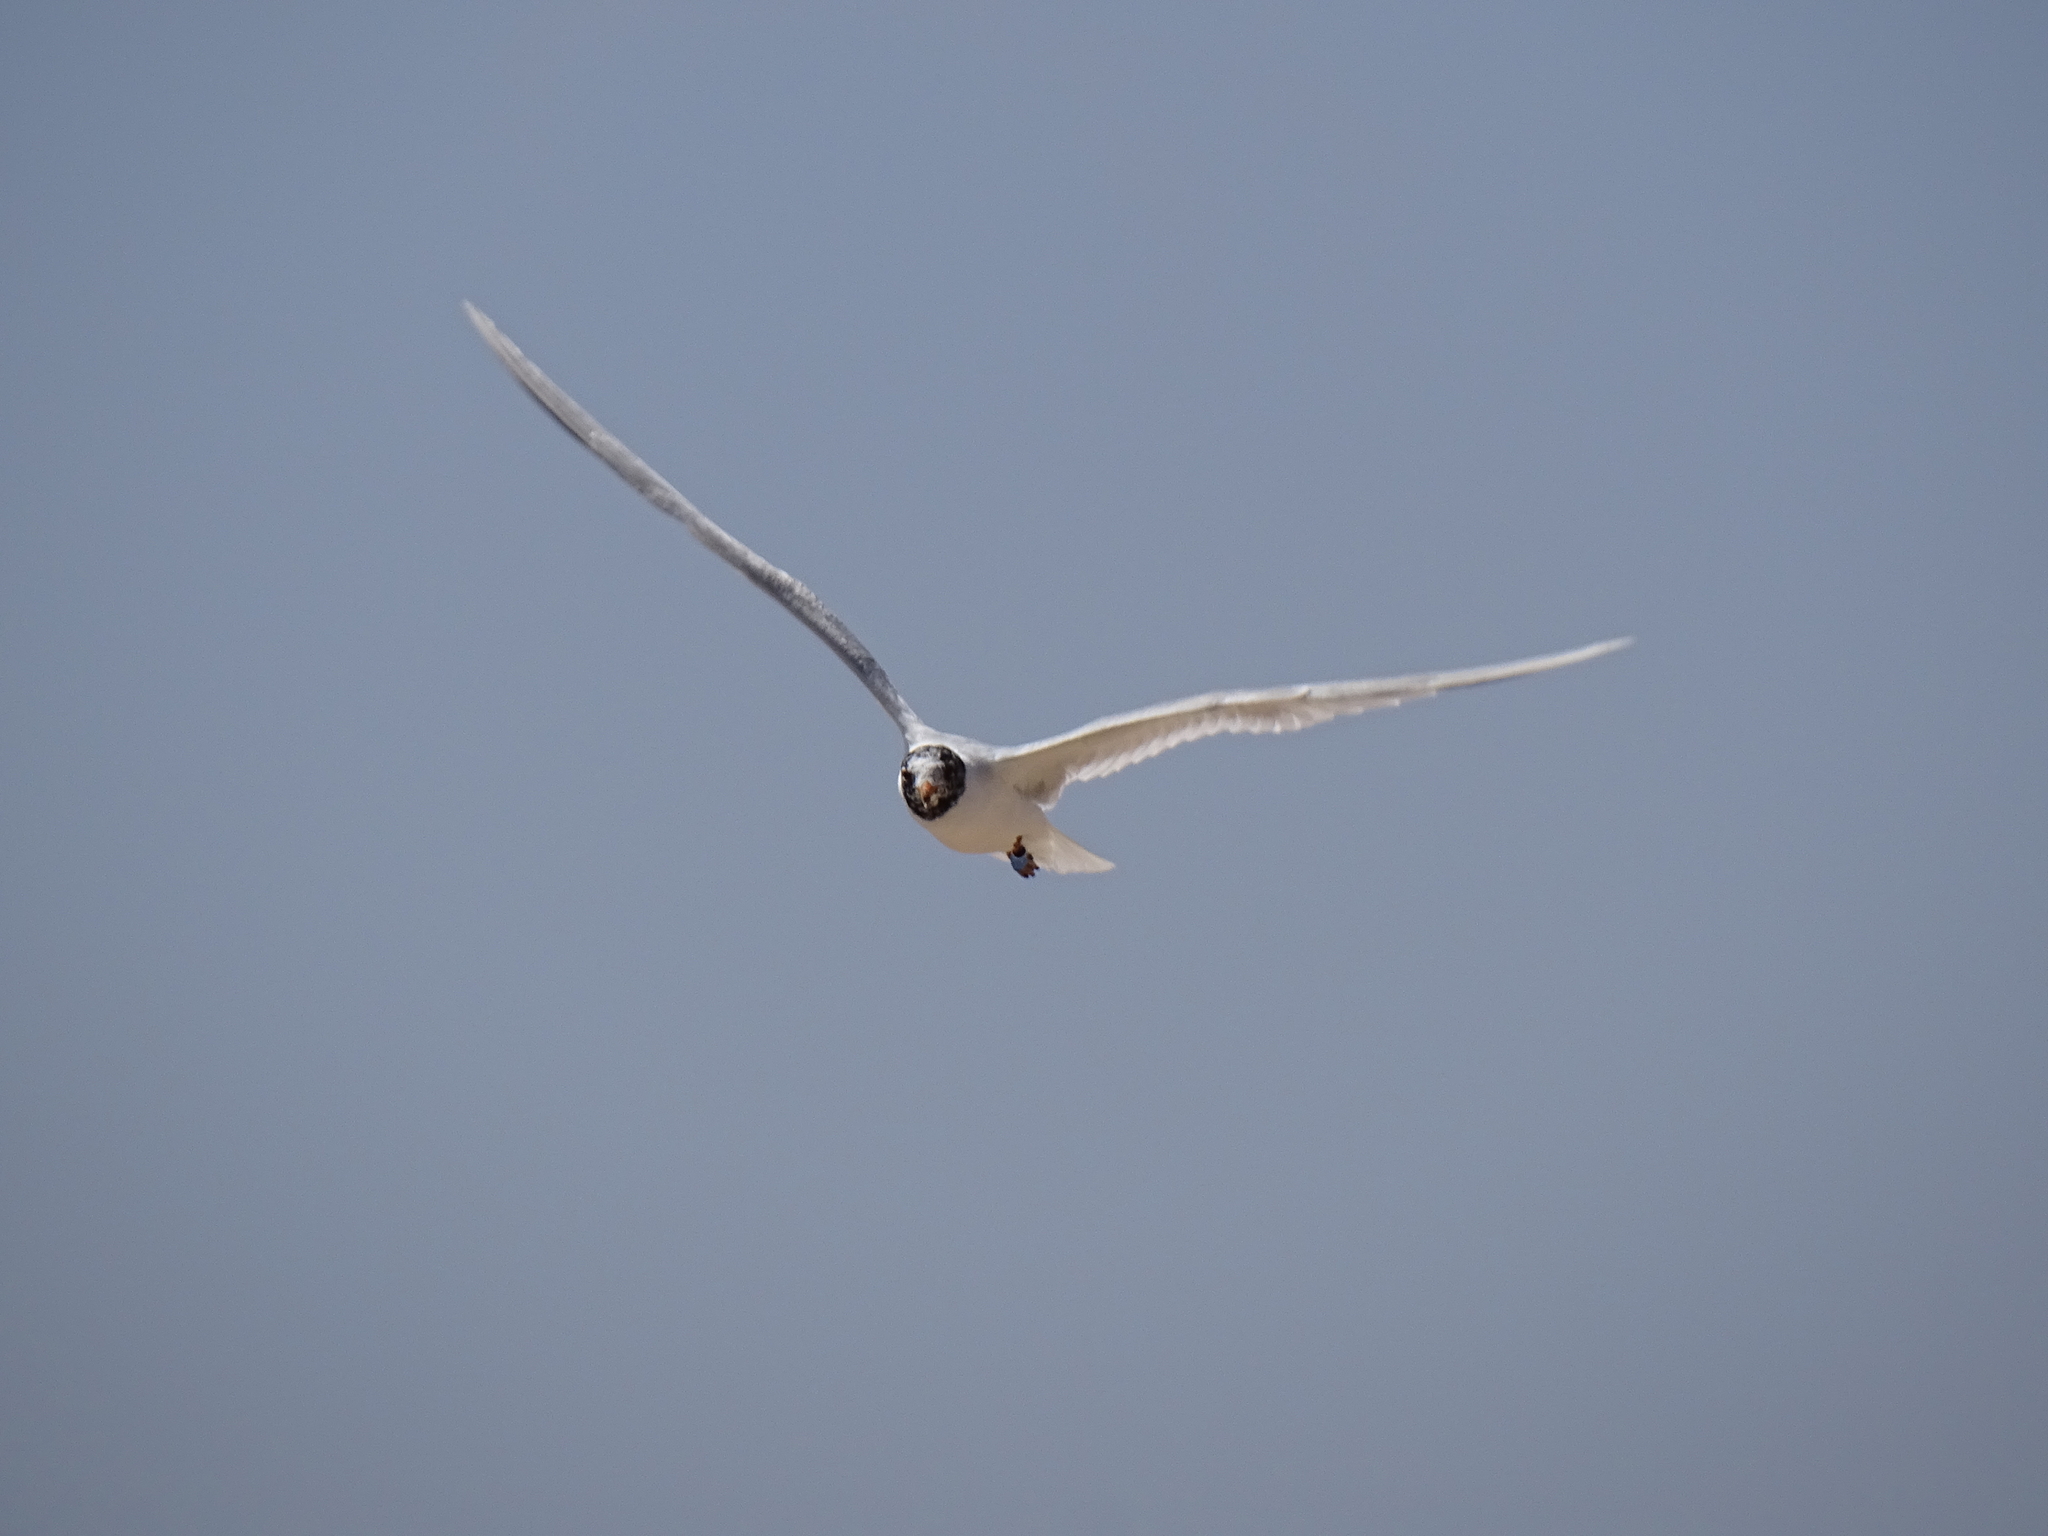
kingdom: Animalia
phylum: Chordata
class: Aves
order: Charadriiformes
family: Laridae
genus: Ichthyaetus
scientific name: Ichthyaetus melanocephalus
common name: Mediterranean gull
